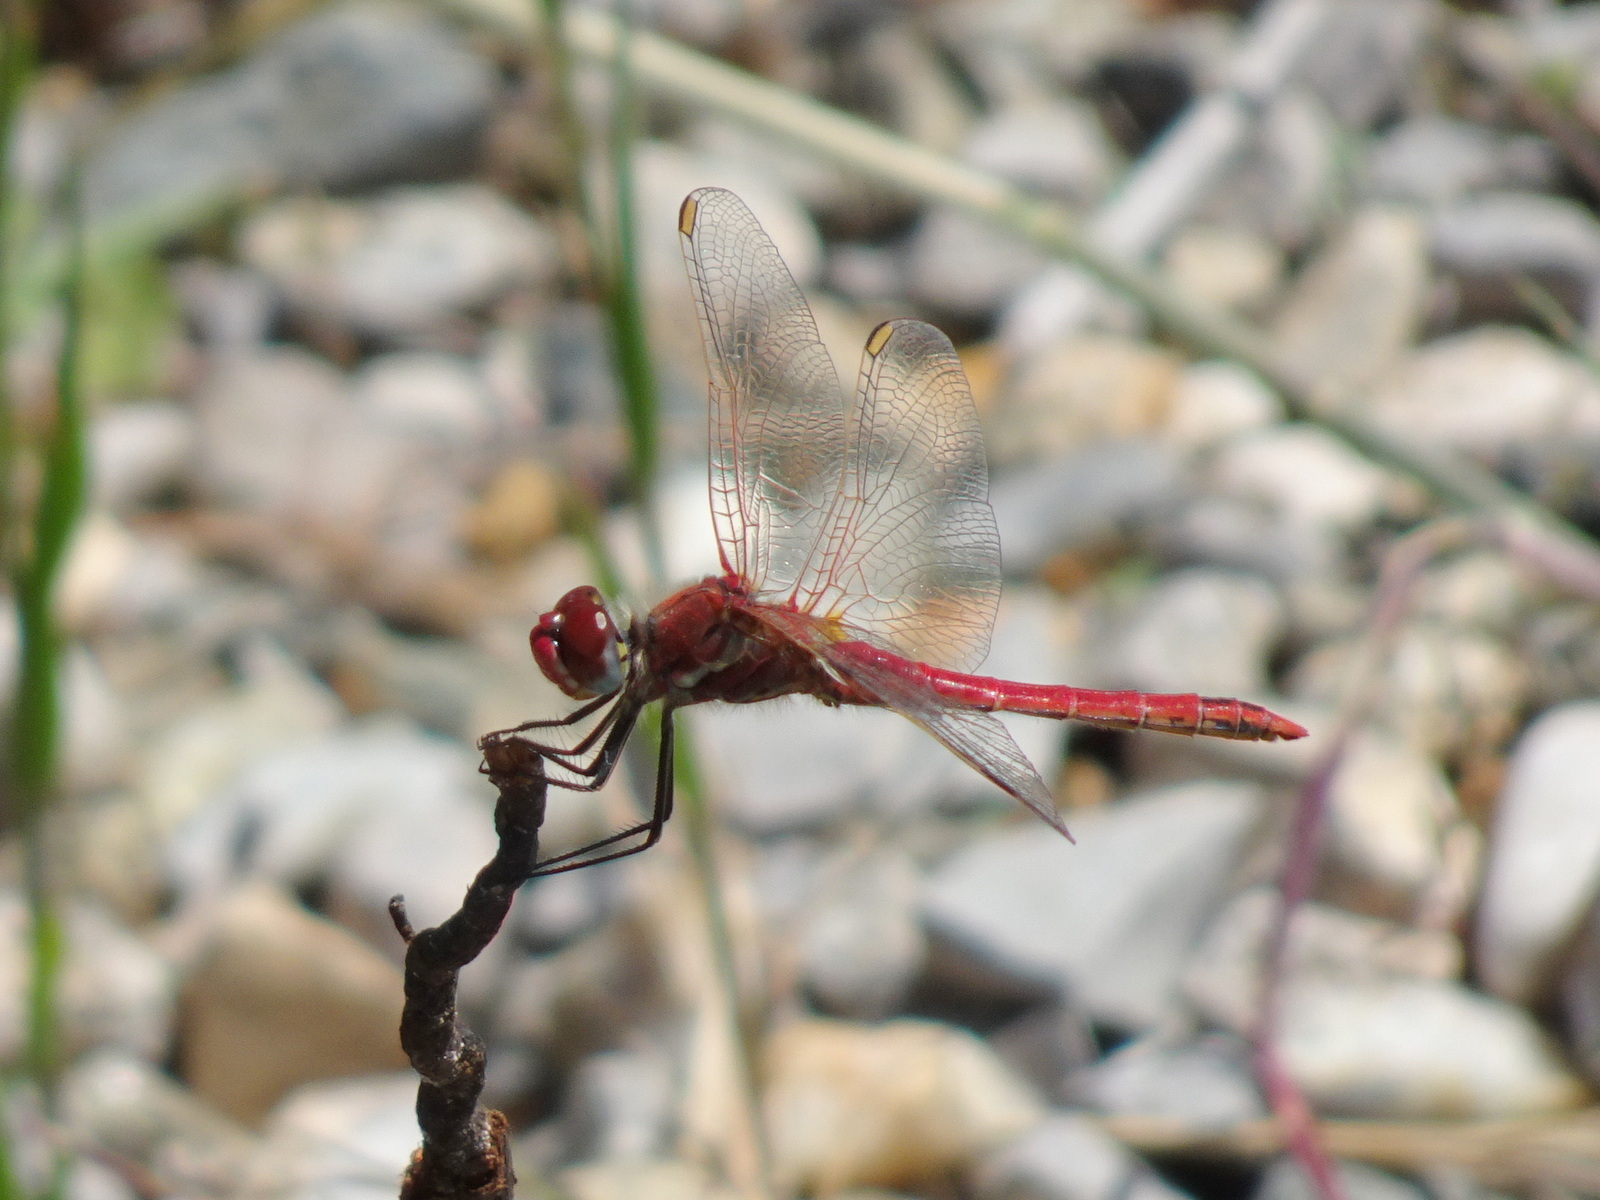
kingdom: Animalia
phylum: Arthropoda
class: Insecta
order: Odonata
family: Libellulidae
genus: Sympetrum
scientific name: Sympetrum fonscolombii
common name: Red-veined darter
